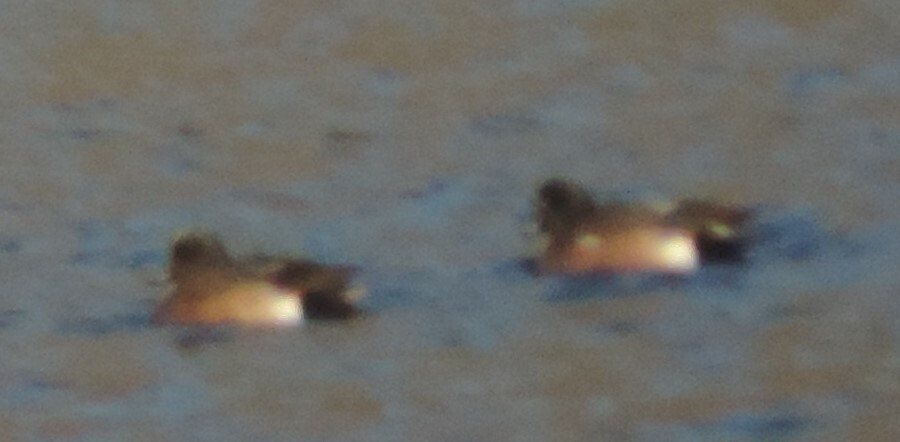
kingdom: Animalia
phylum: Chordata
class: Aves
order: Anseriformes
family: Anatidae
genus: Mareca
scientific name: Mareca americana
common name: American wigeon
